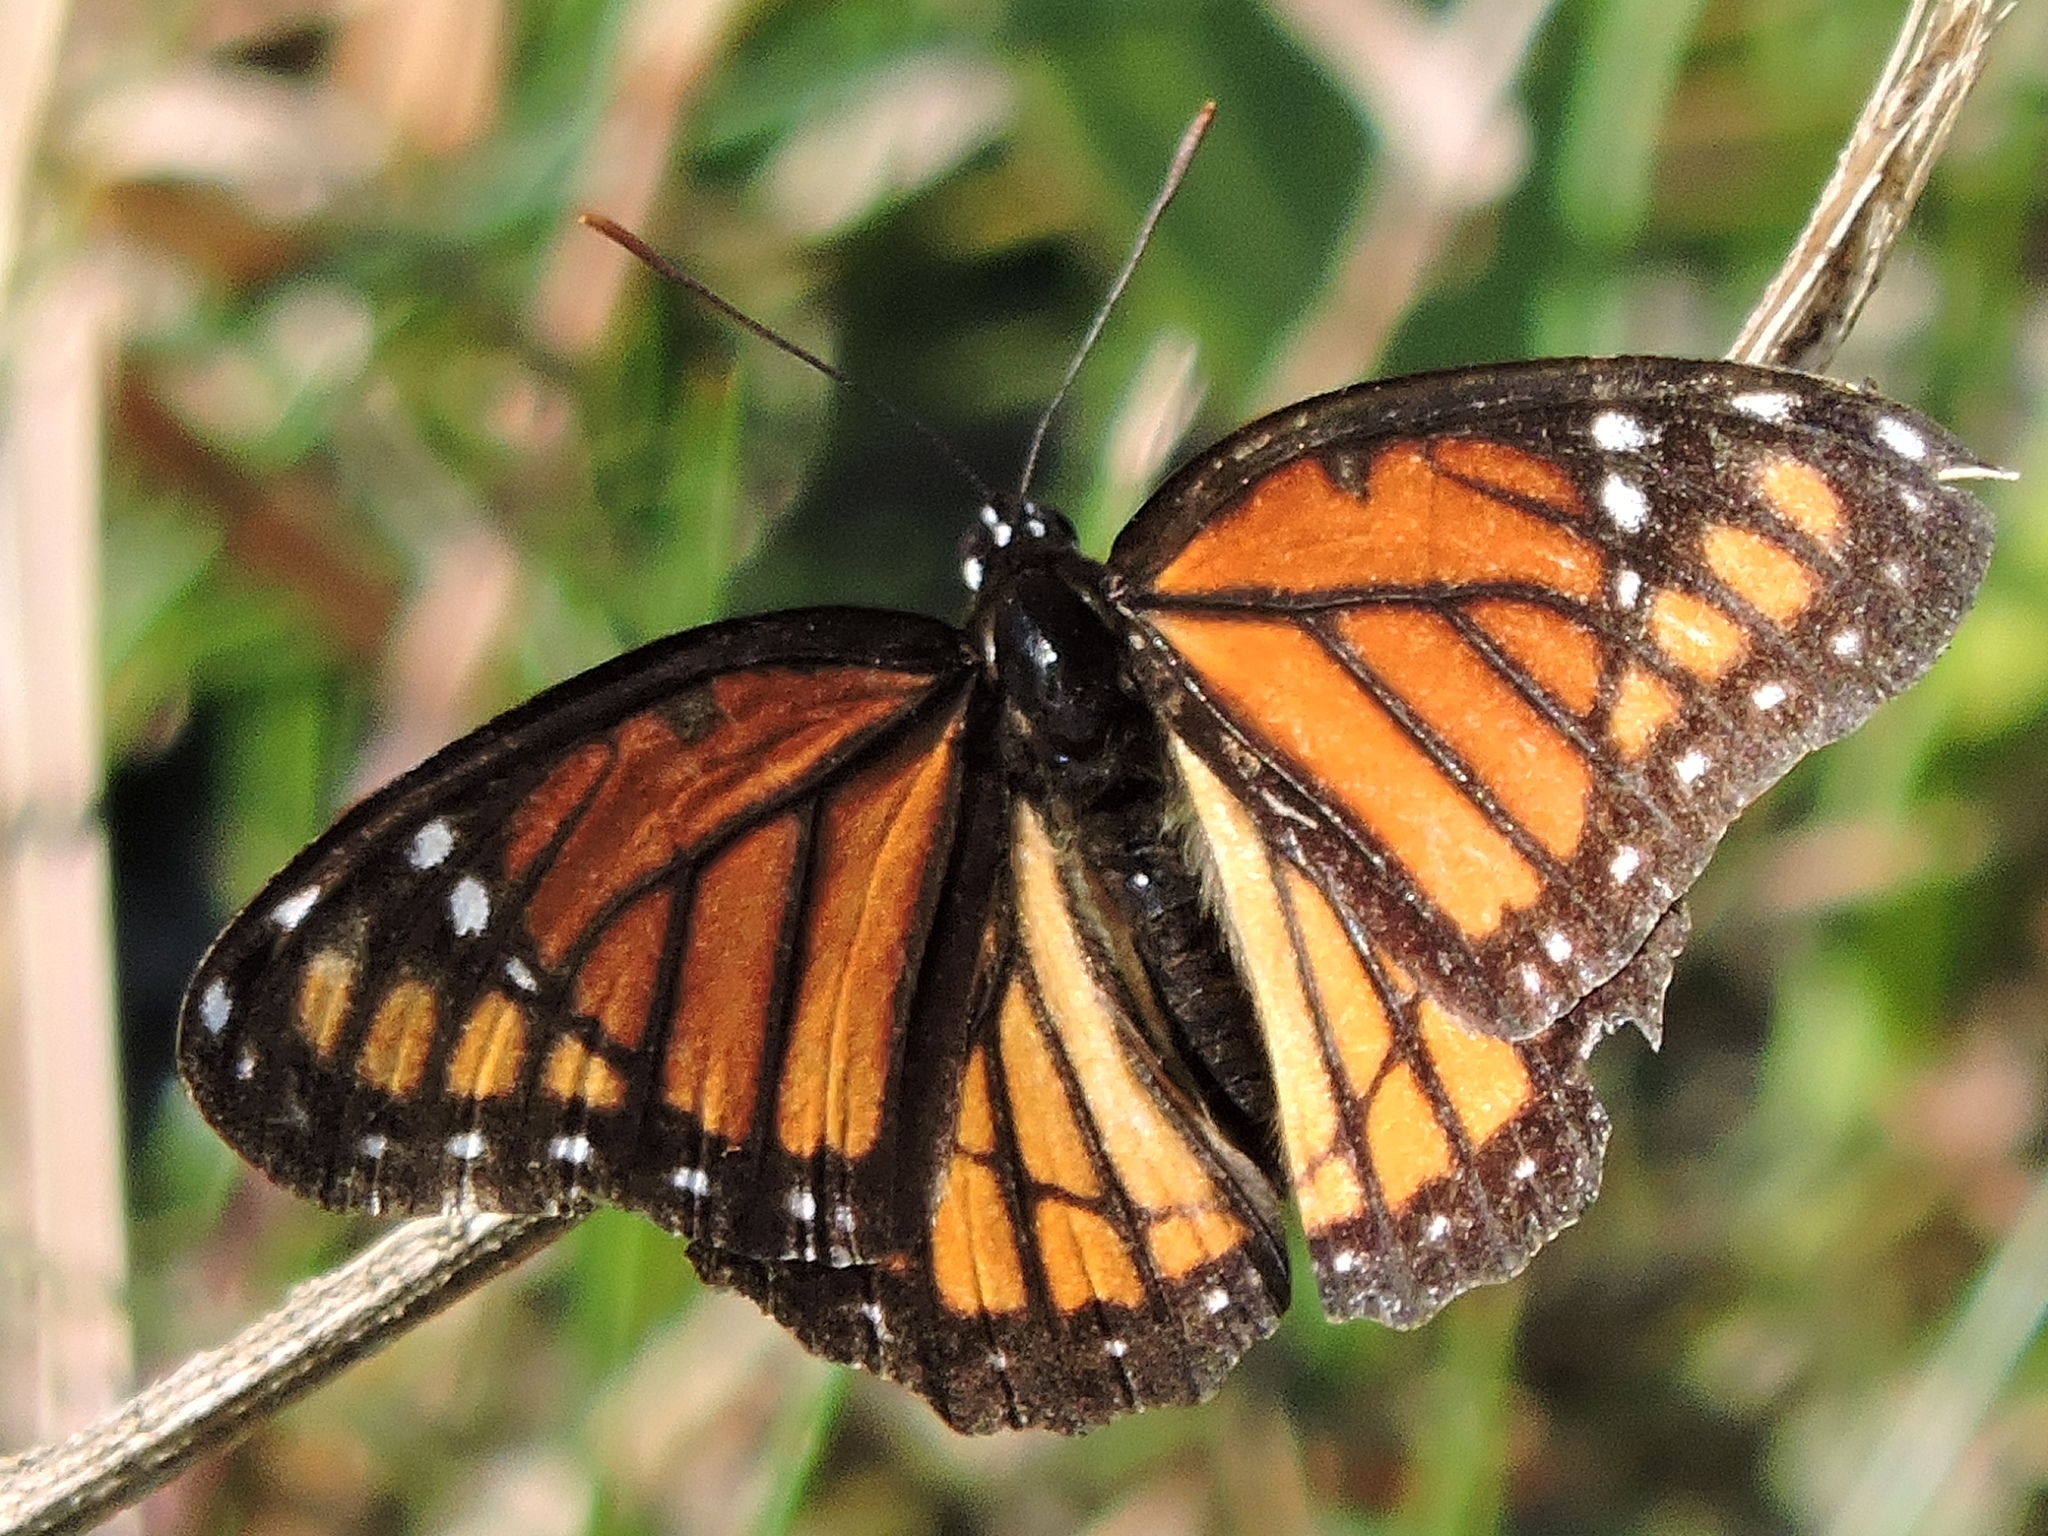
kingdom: Animalia
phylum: Arthropoda
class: Insecta
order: Lepidoptera
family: Nymphalidae
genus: Limenitis
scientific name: Limenitis archippus
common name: Viceroy
